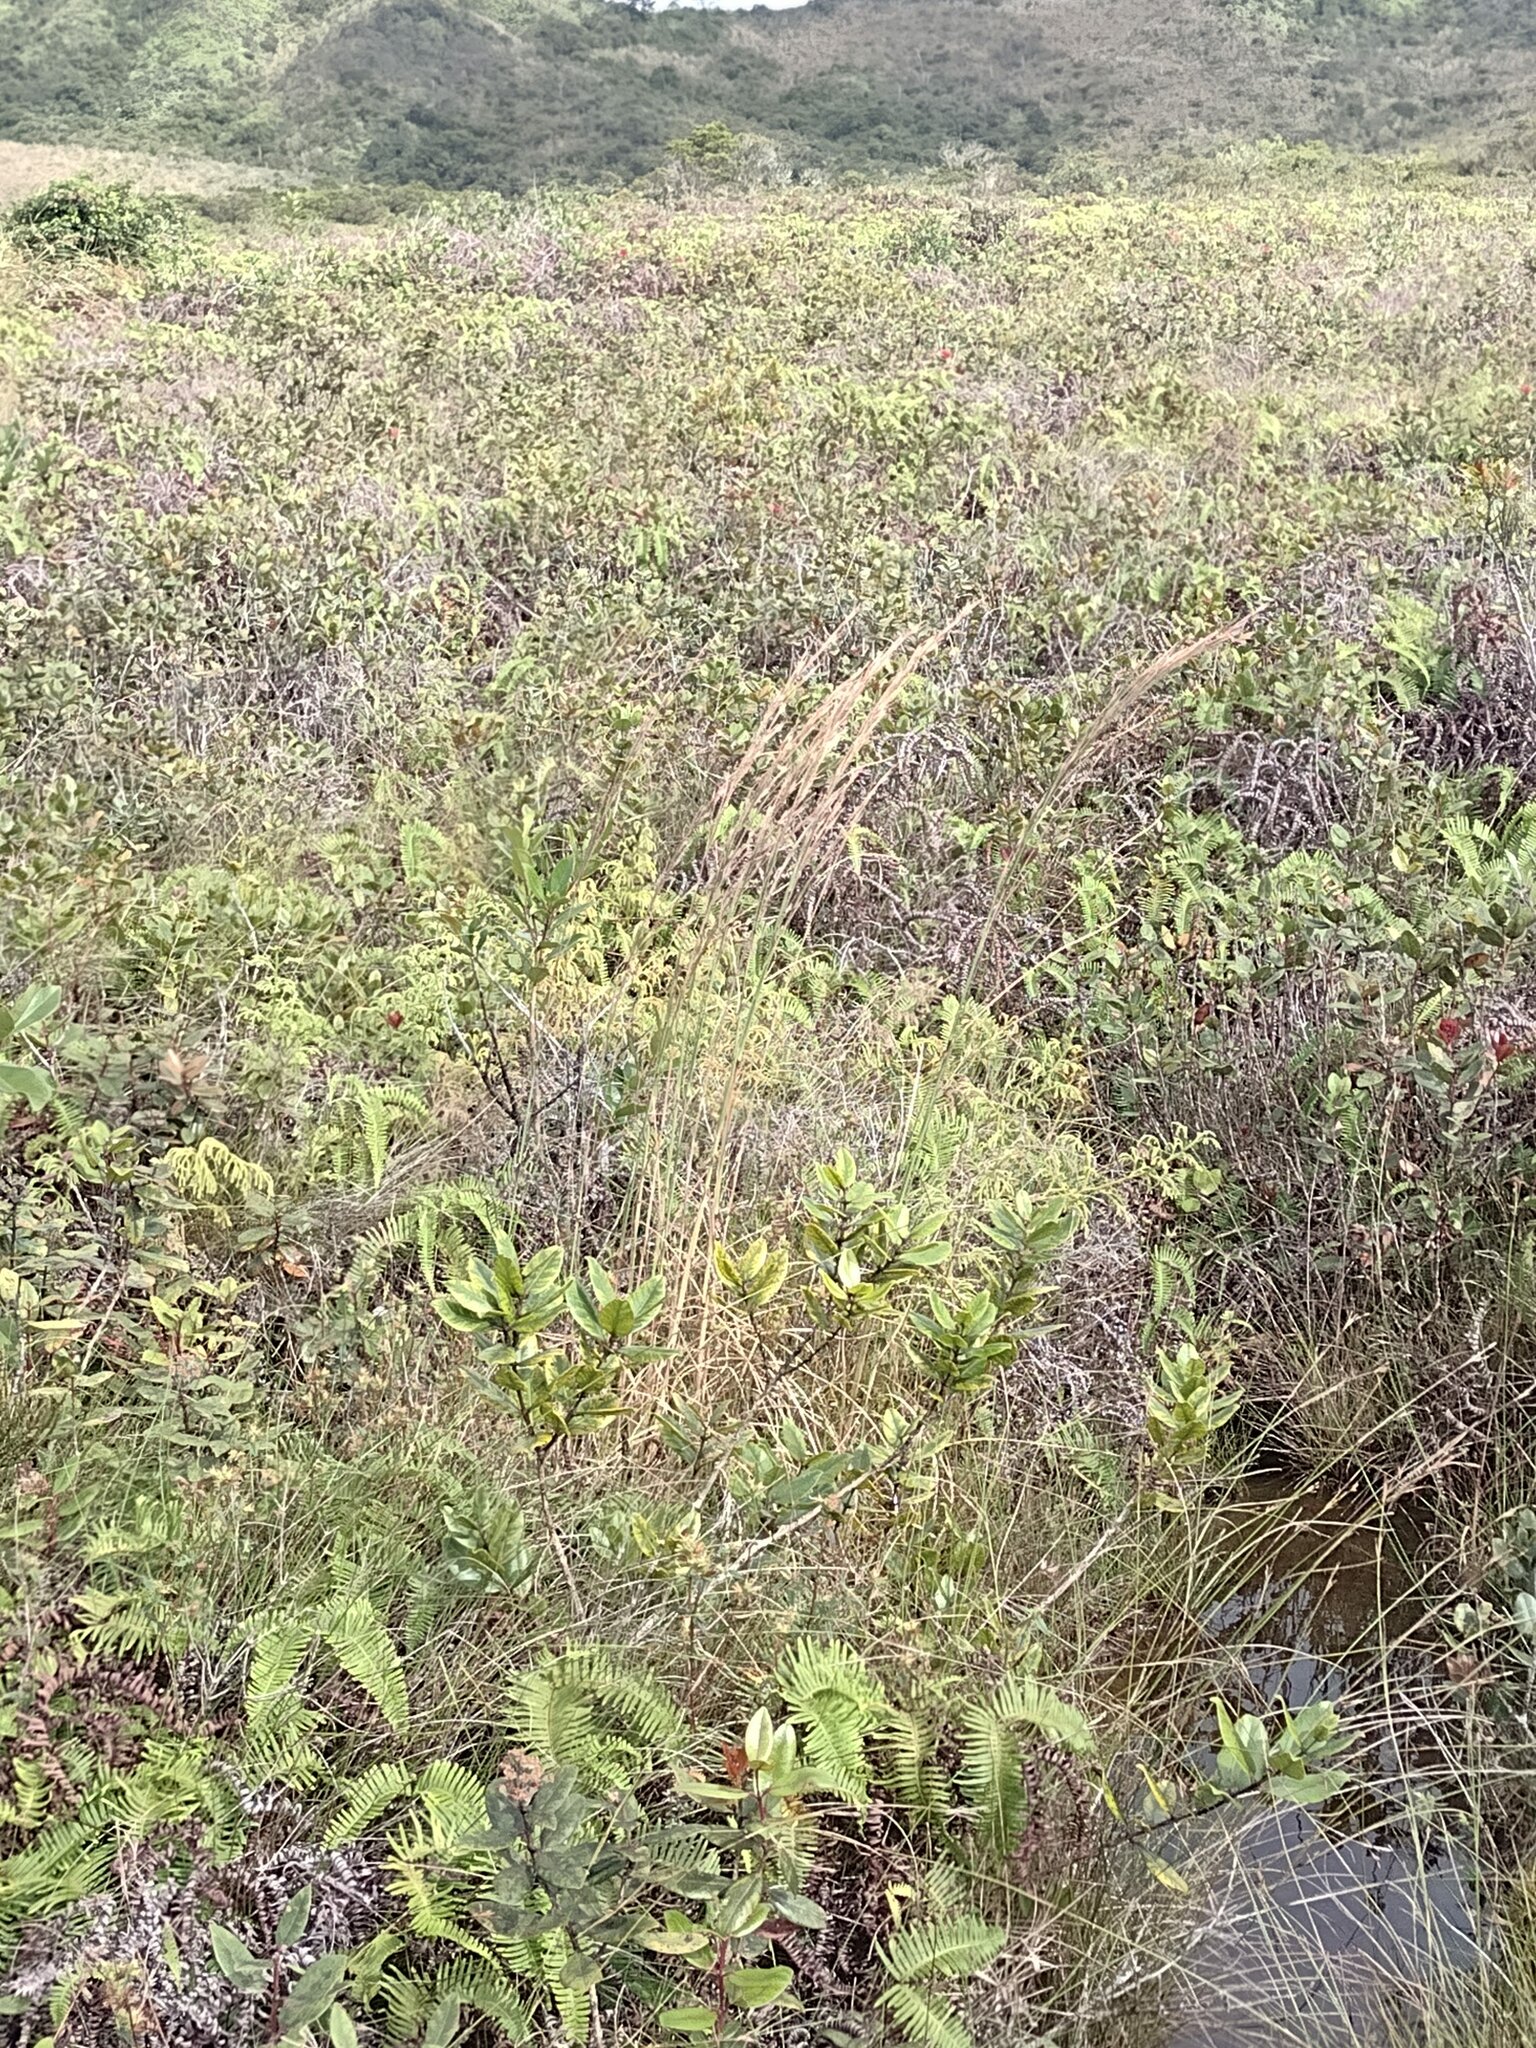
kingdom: Plantae
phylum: Tracheophyta
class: Liliopsida
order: Poales
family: Poaceae
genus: Andropogon
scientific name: Andropogon virginicus
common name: Broomsedge bluestem
